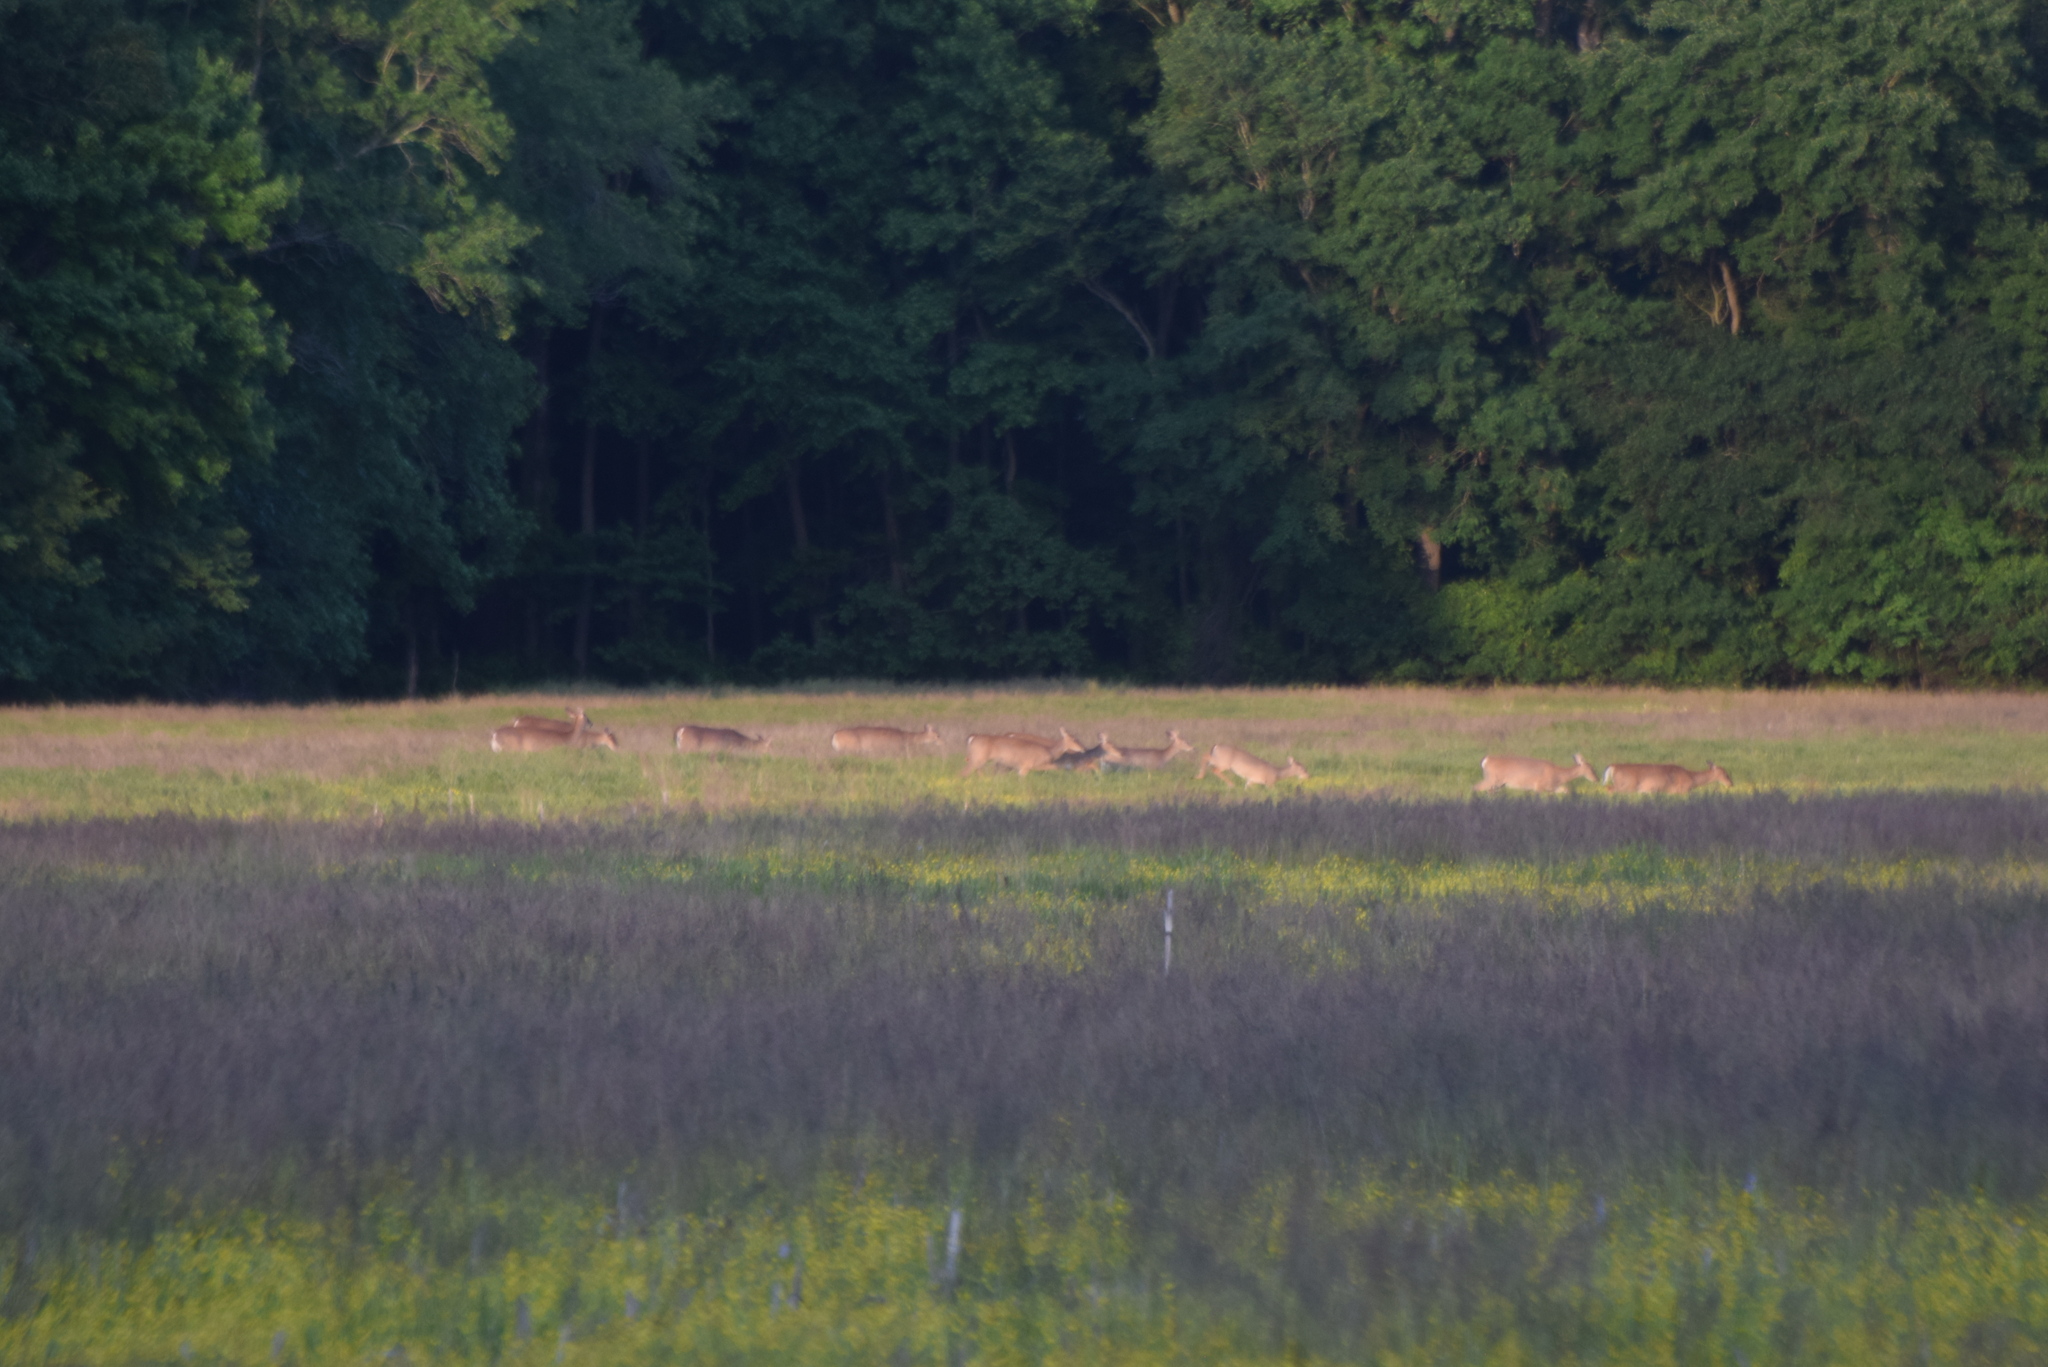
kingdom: Animalia
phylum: Chordata
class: Mammalia
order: Artiodactyla
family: Cervidae
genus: Odocoileus
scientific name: Odocoileus virginianus
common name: White-tailed deer
